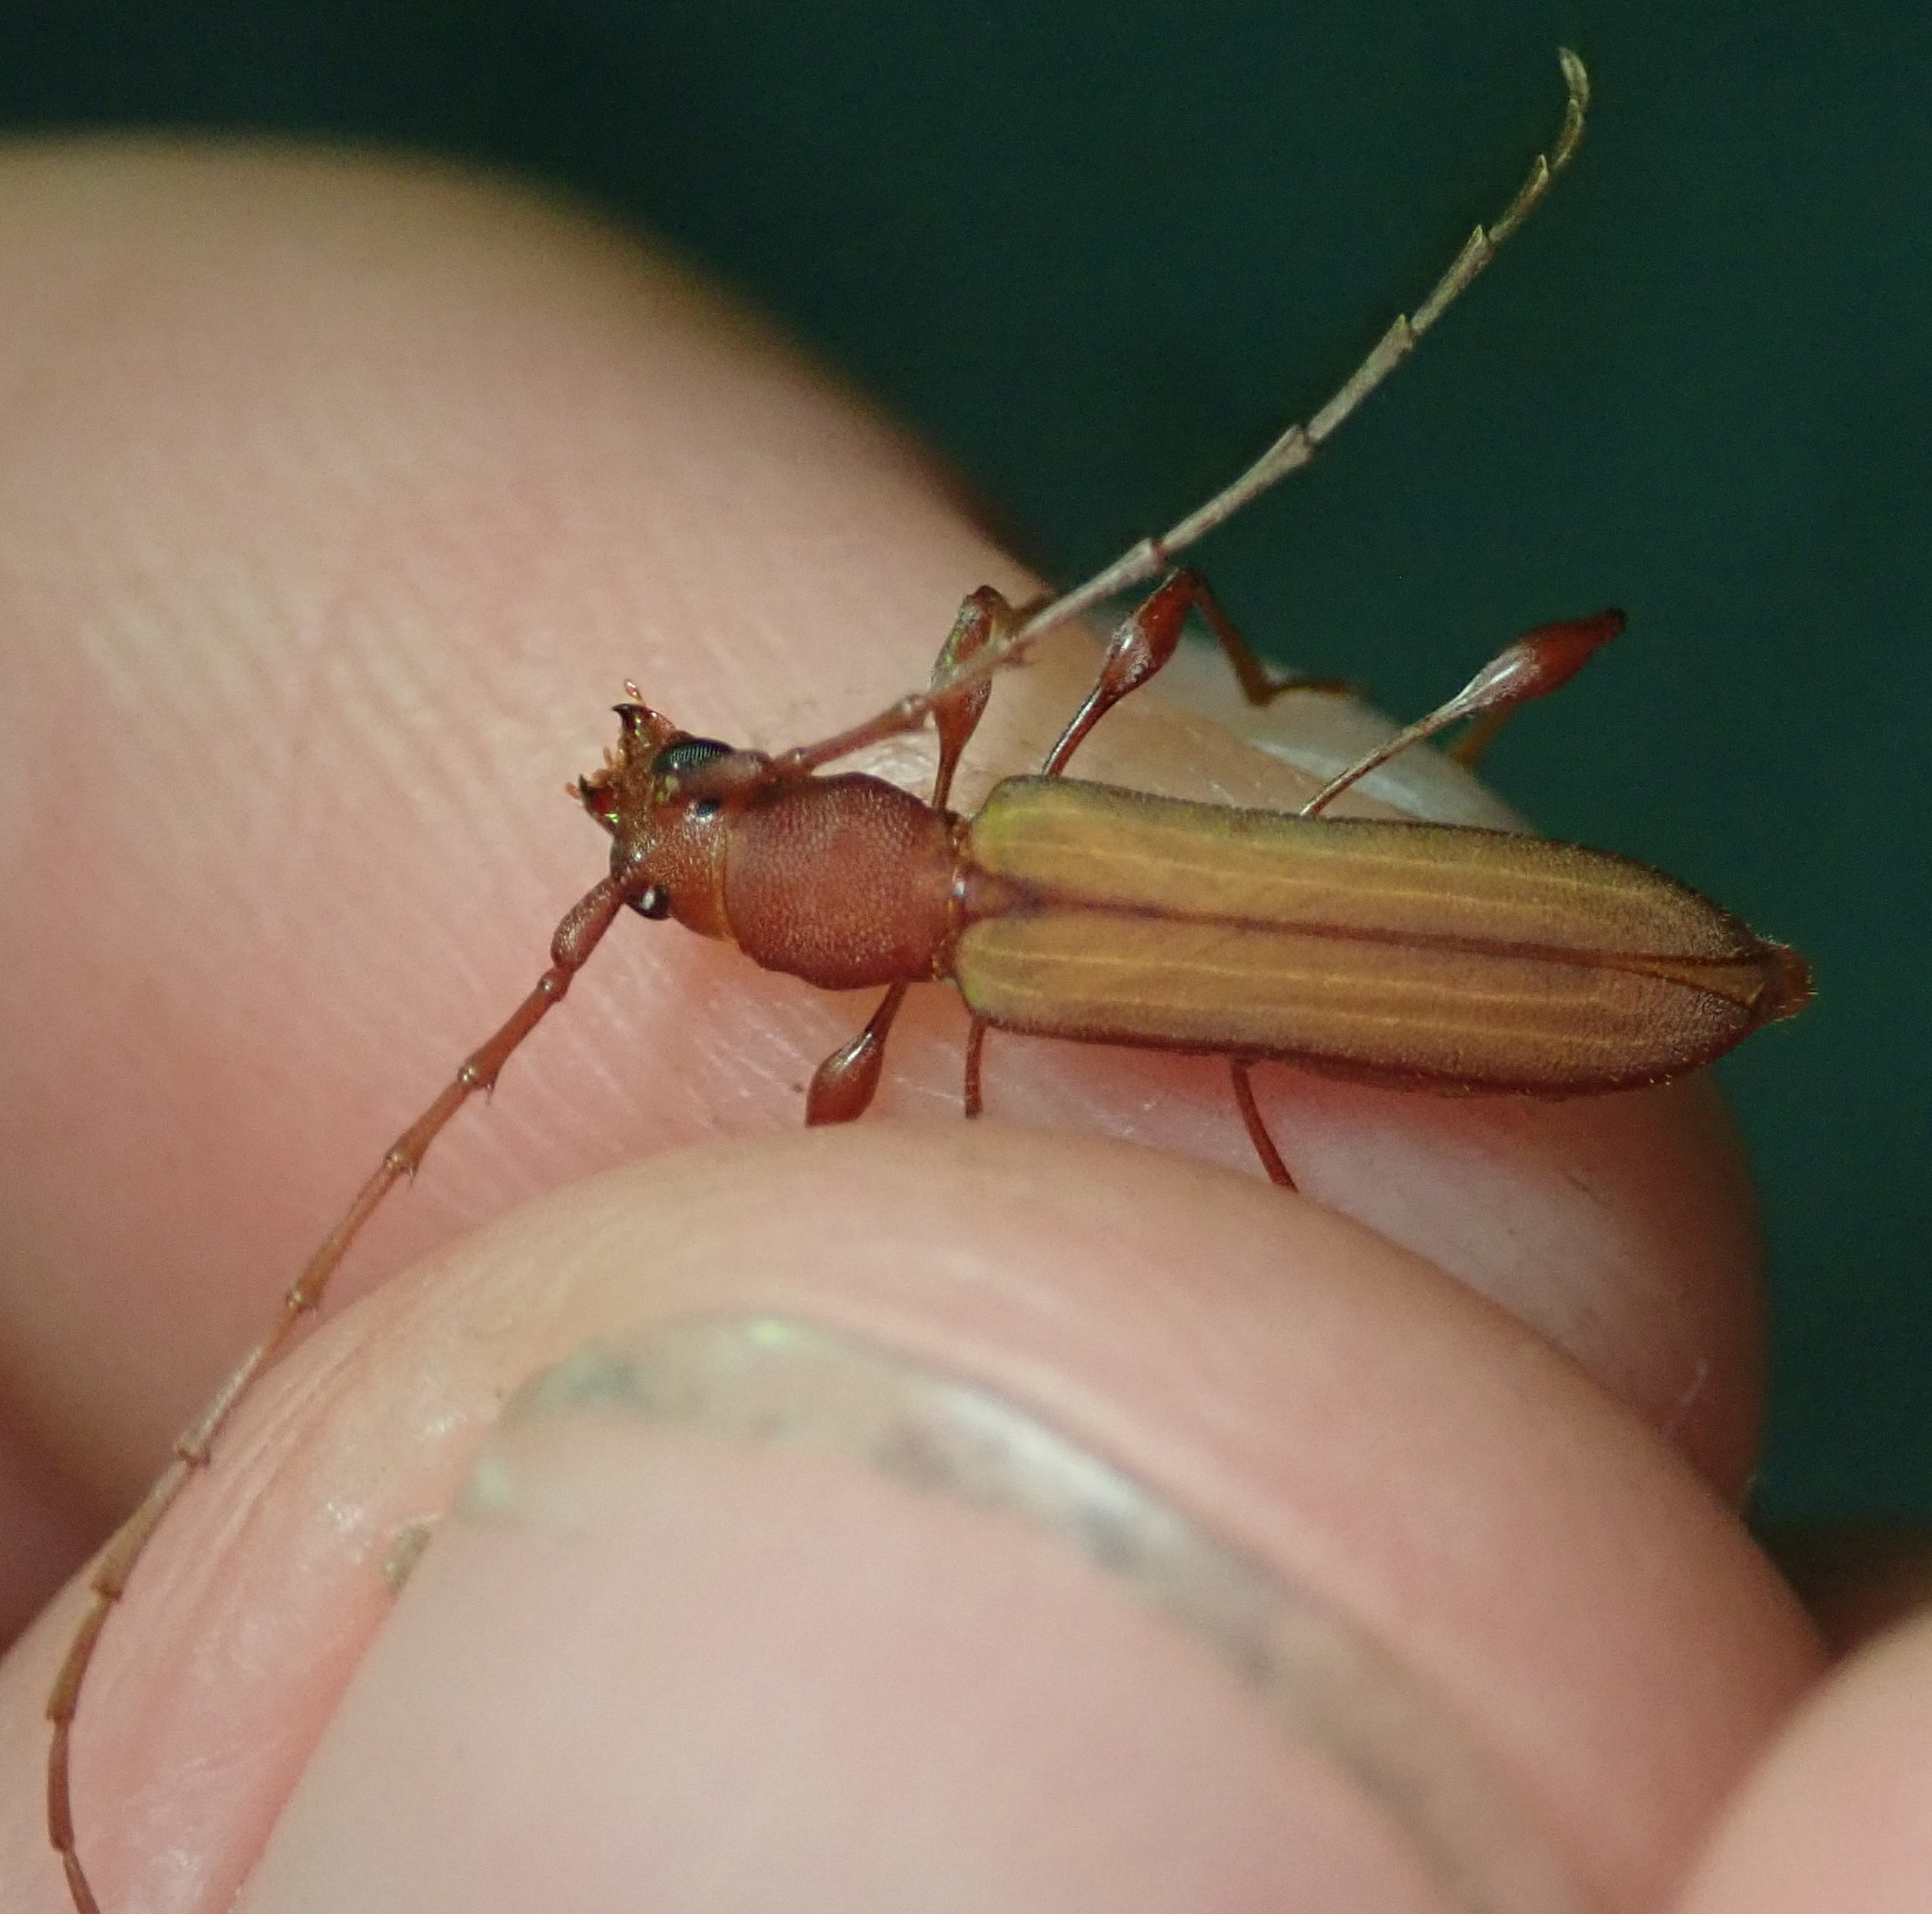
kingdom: Animalia
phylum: Arthropoda
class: Insecta
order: Coleoptera
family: Cerambycidae
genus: Cordylomera
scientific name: Cordylomera karschi
